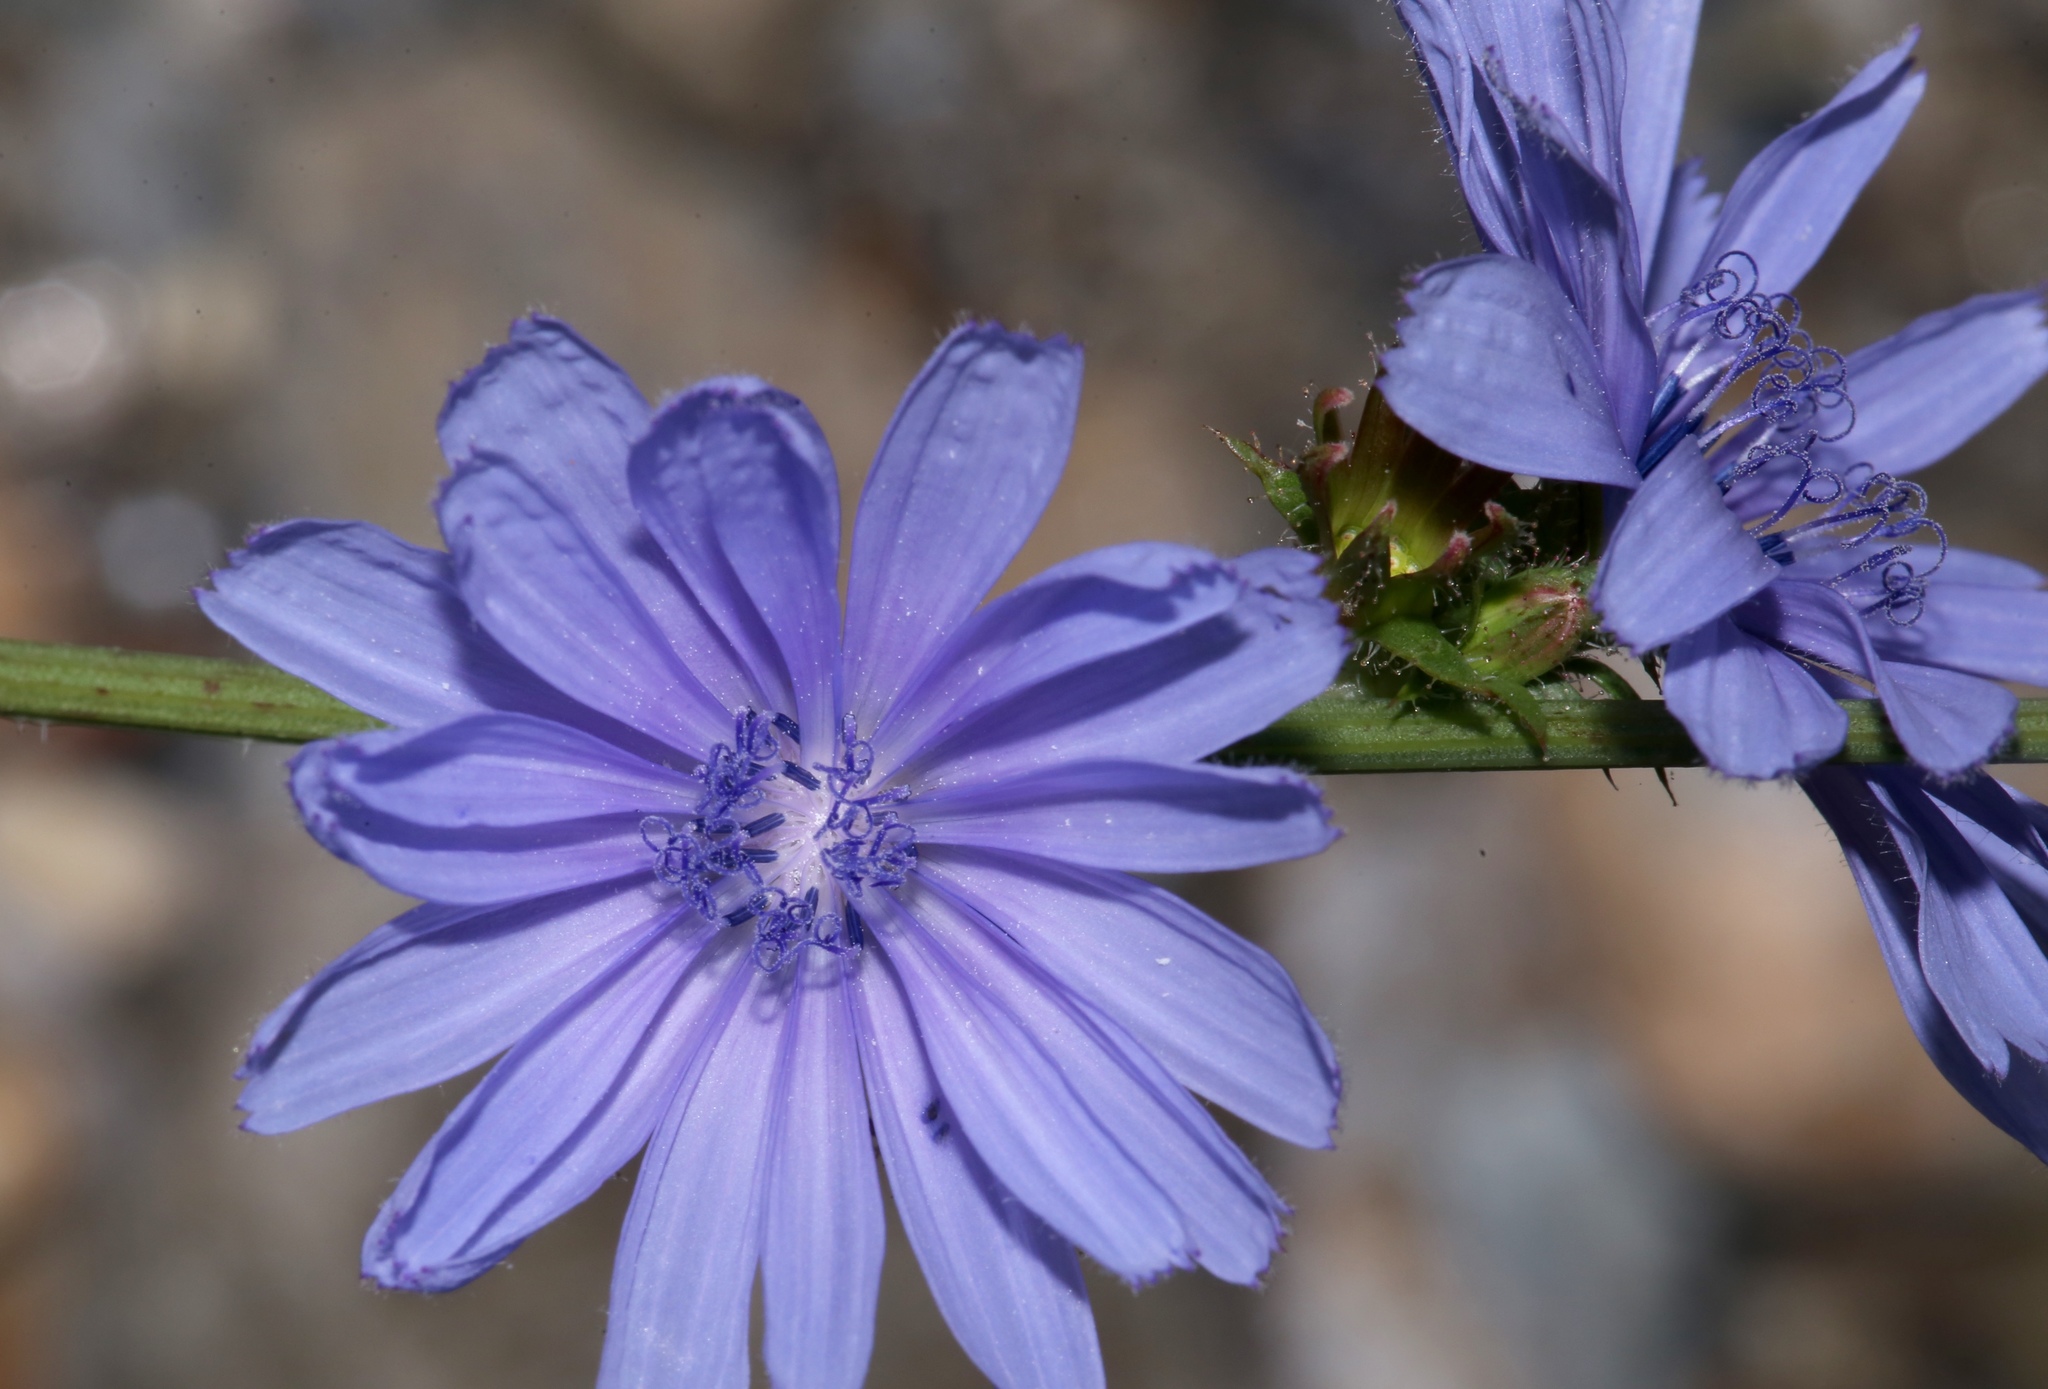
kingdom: Plantae
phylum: Tracheophyta
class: Magnoliopsida
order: Asterales
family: Asteraceae
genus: Cichorium
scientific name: Cichorium intybus
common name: Chicory
